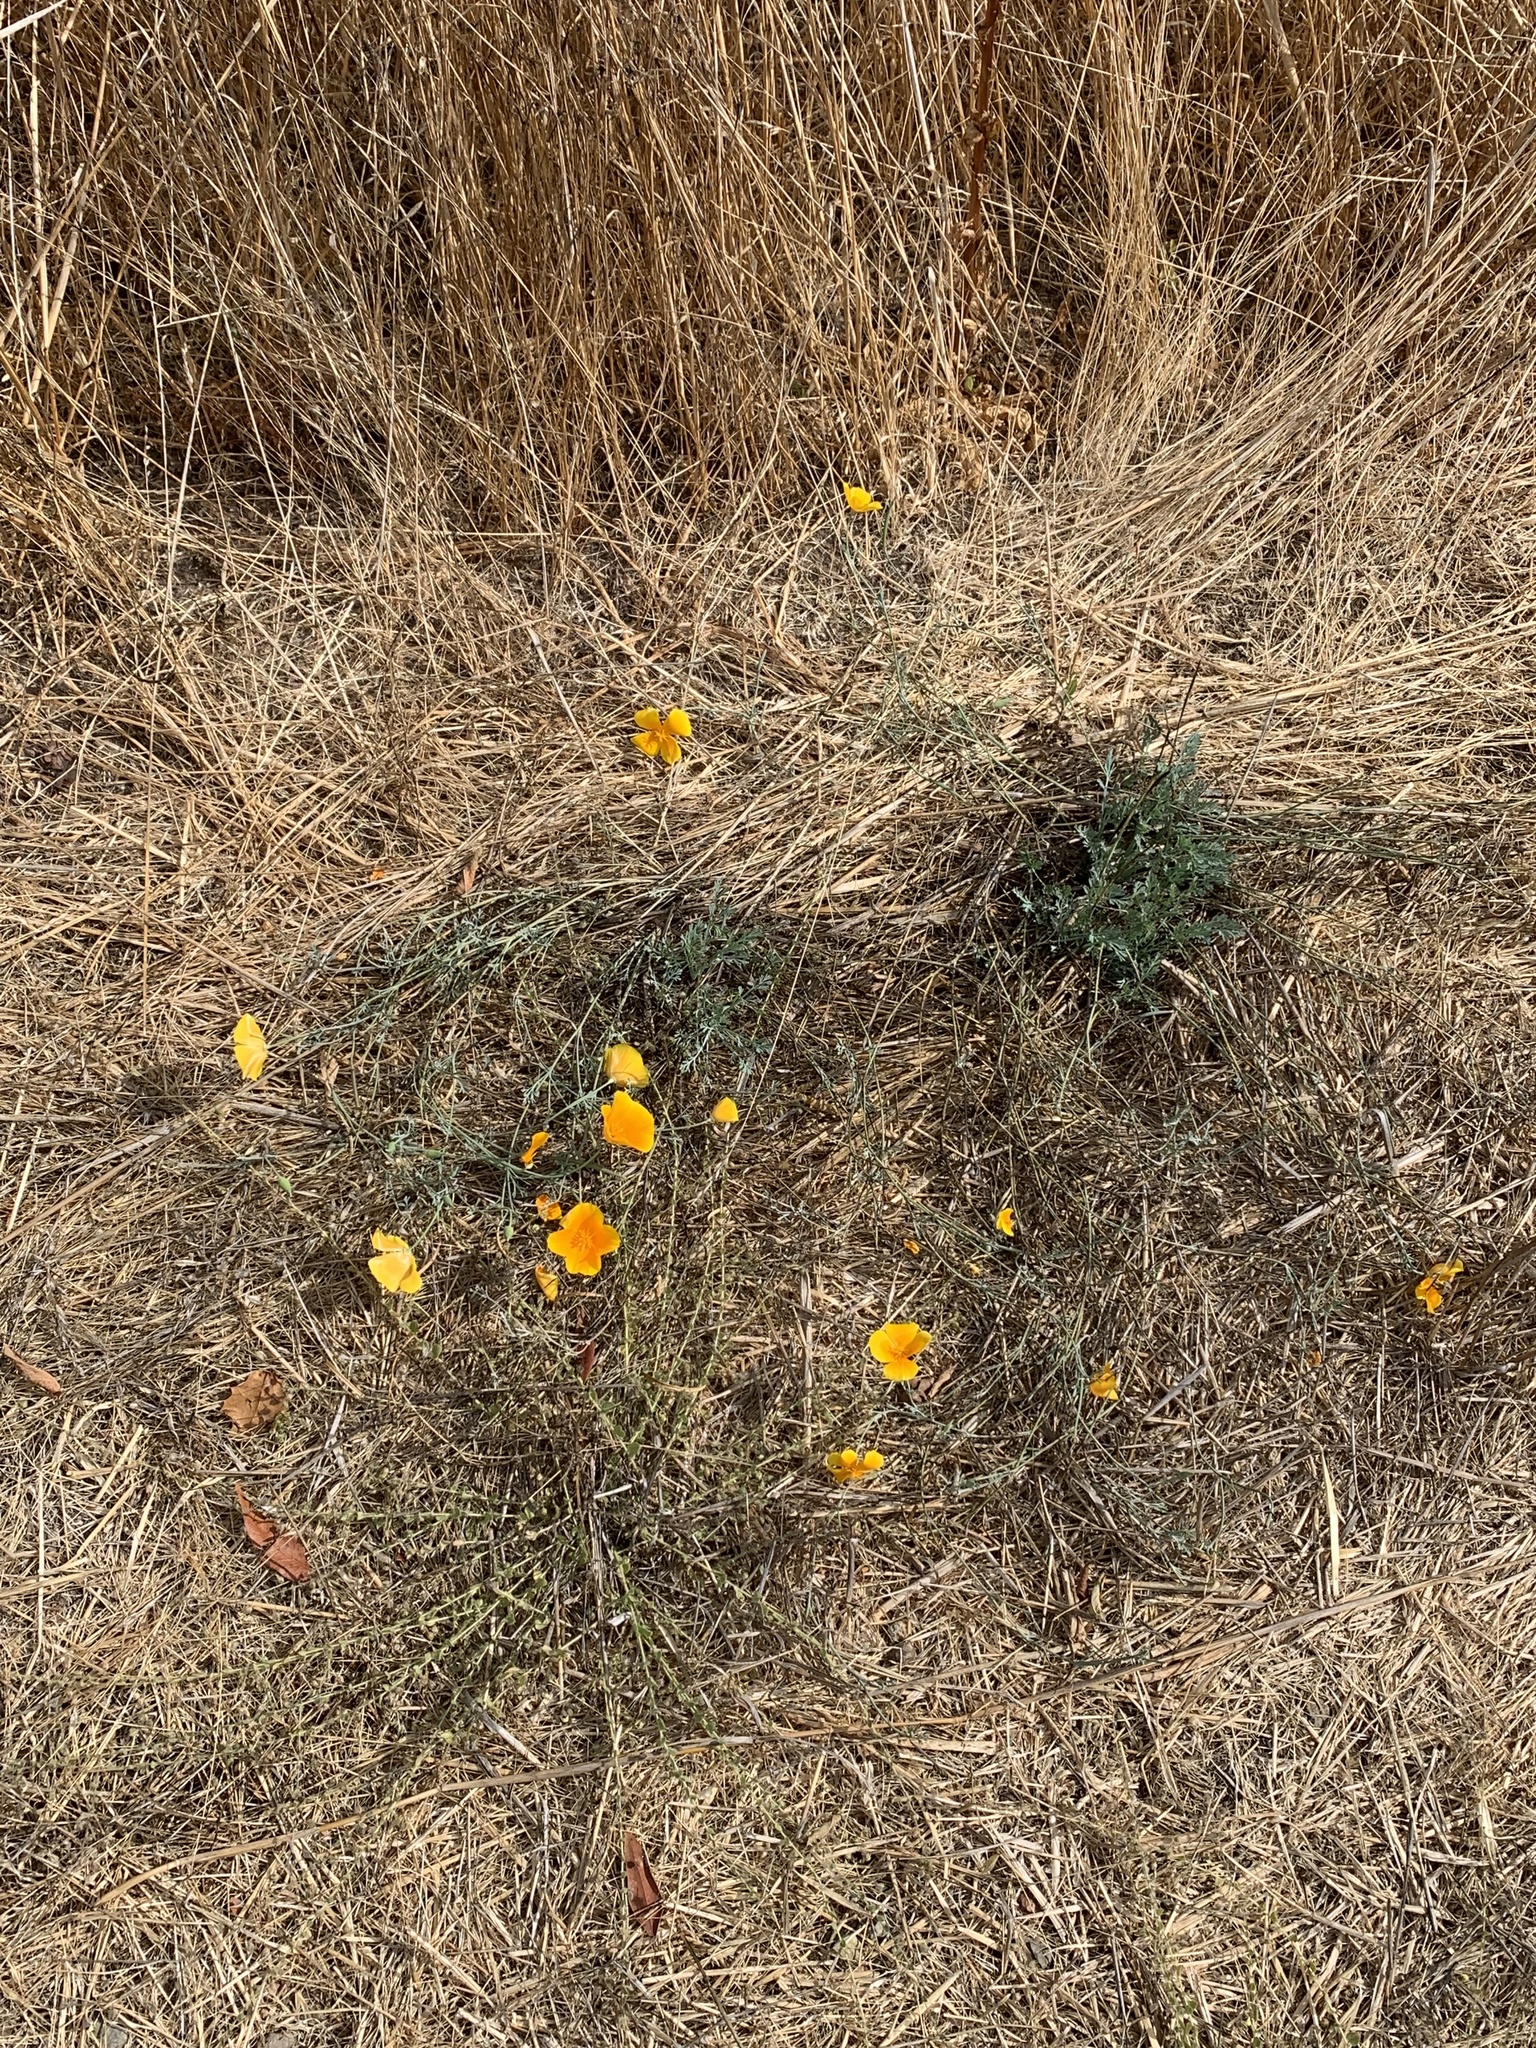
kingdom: Plantae
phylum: Tracheophyta
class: Magnoliopsida
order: Ranunculales
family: Papaveraceae
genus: Eschscholzia
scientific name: Eschscholzia californica
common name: California poppy
